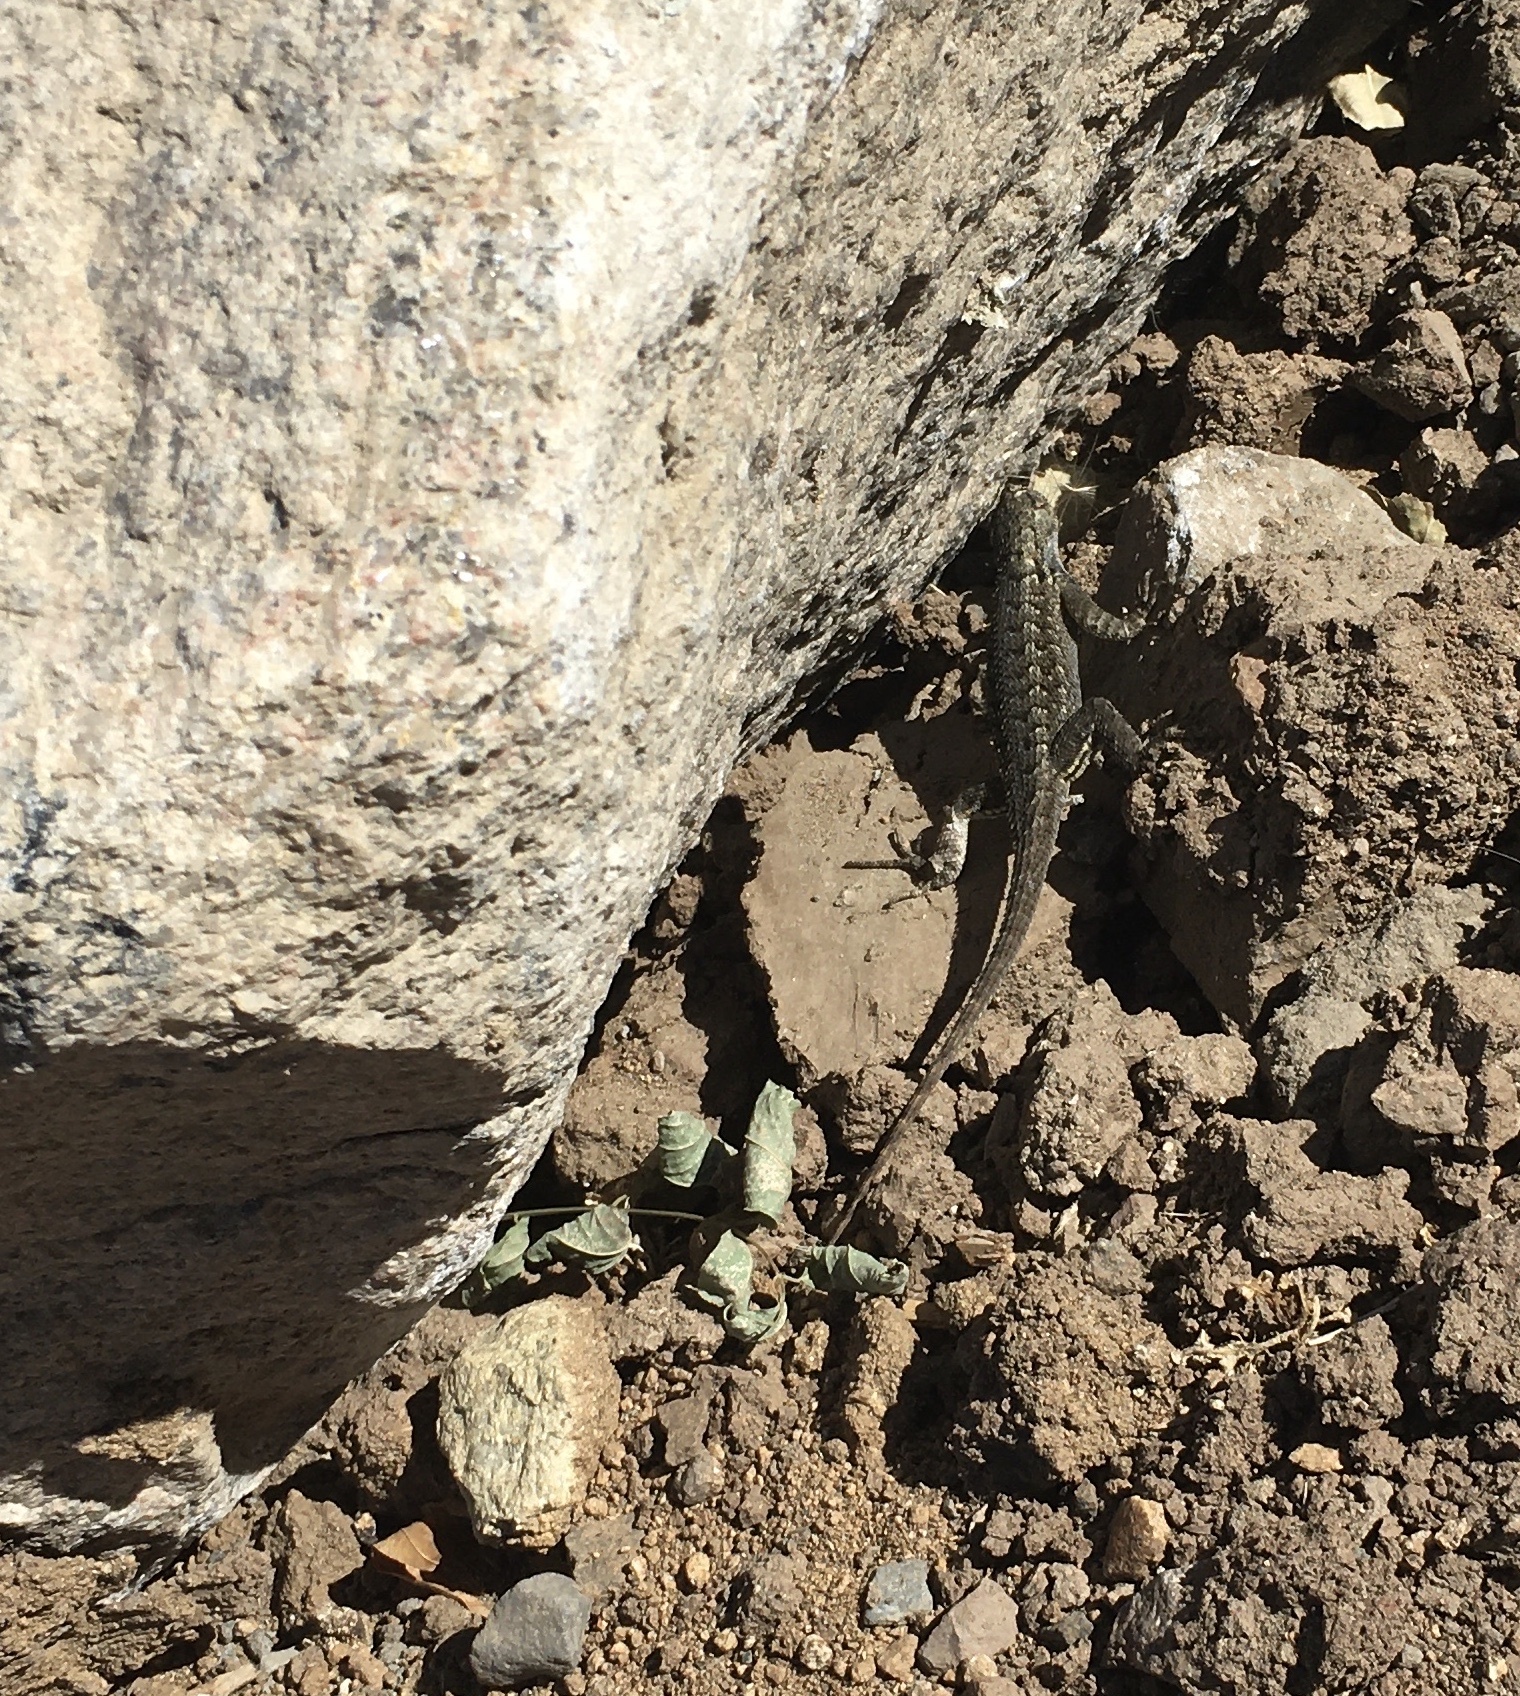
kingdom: Animalia
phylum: Chordata
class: Squamata
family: Phrynosomatidae
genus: Sceloporus
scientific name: Sceloporus occidentalis
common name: Western fence lizard
